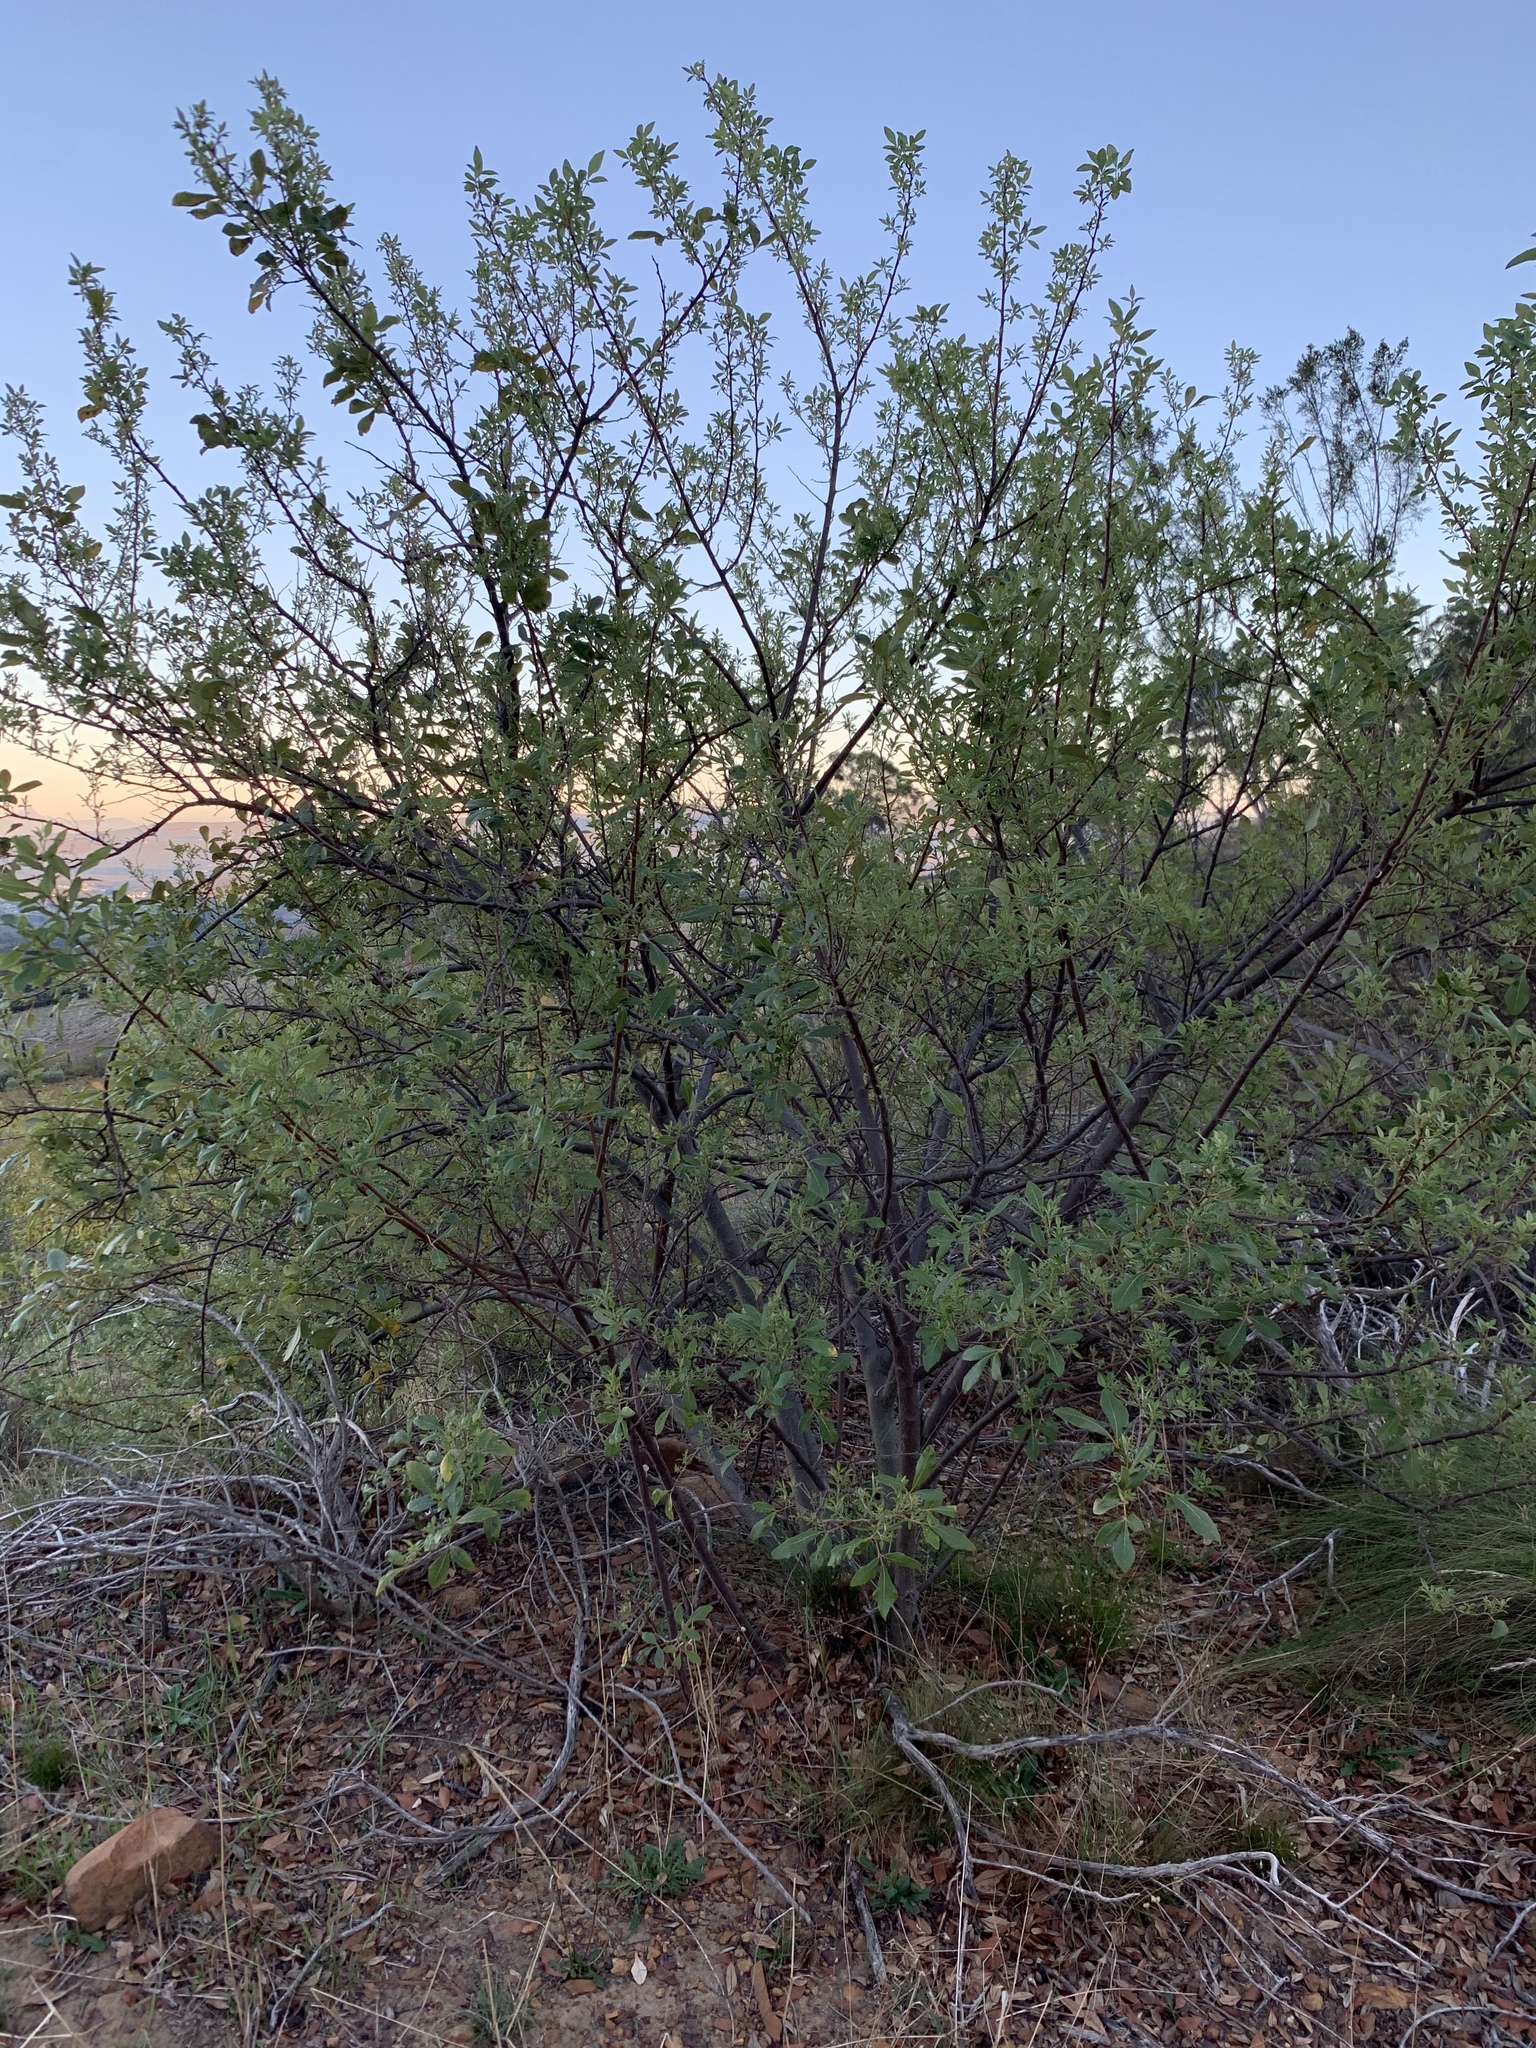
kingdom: Plantae
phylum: Tracheophyta
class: Magnoliopsida
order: Sapindales
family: Anacardiaceae
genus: Searsia
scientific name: Searsia tomentosa
